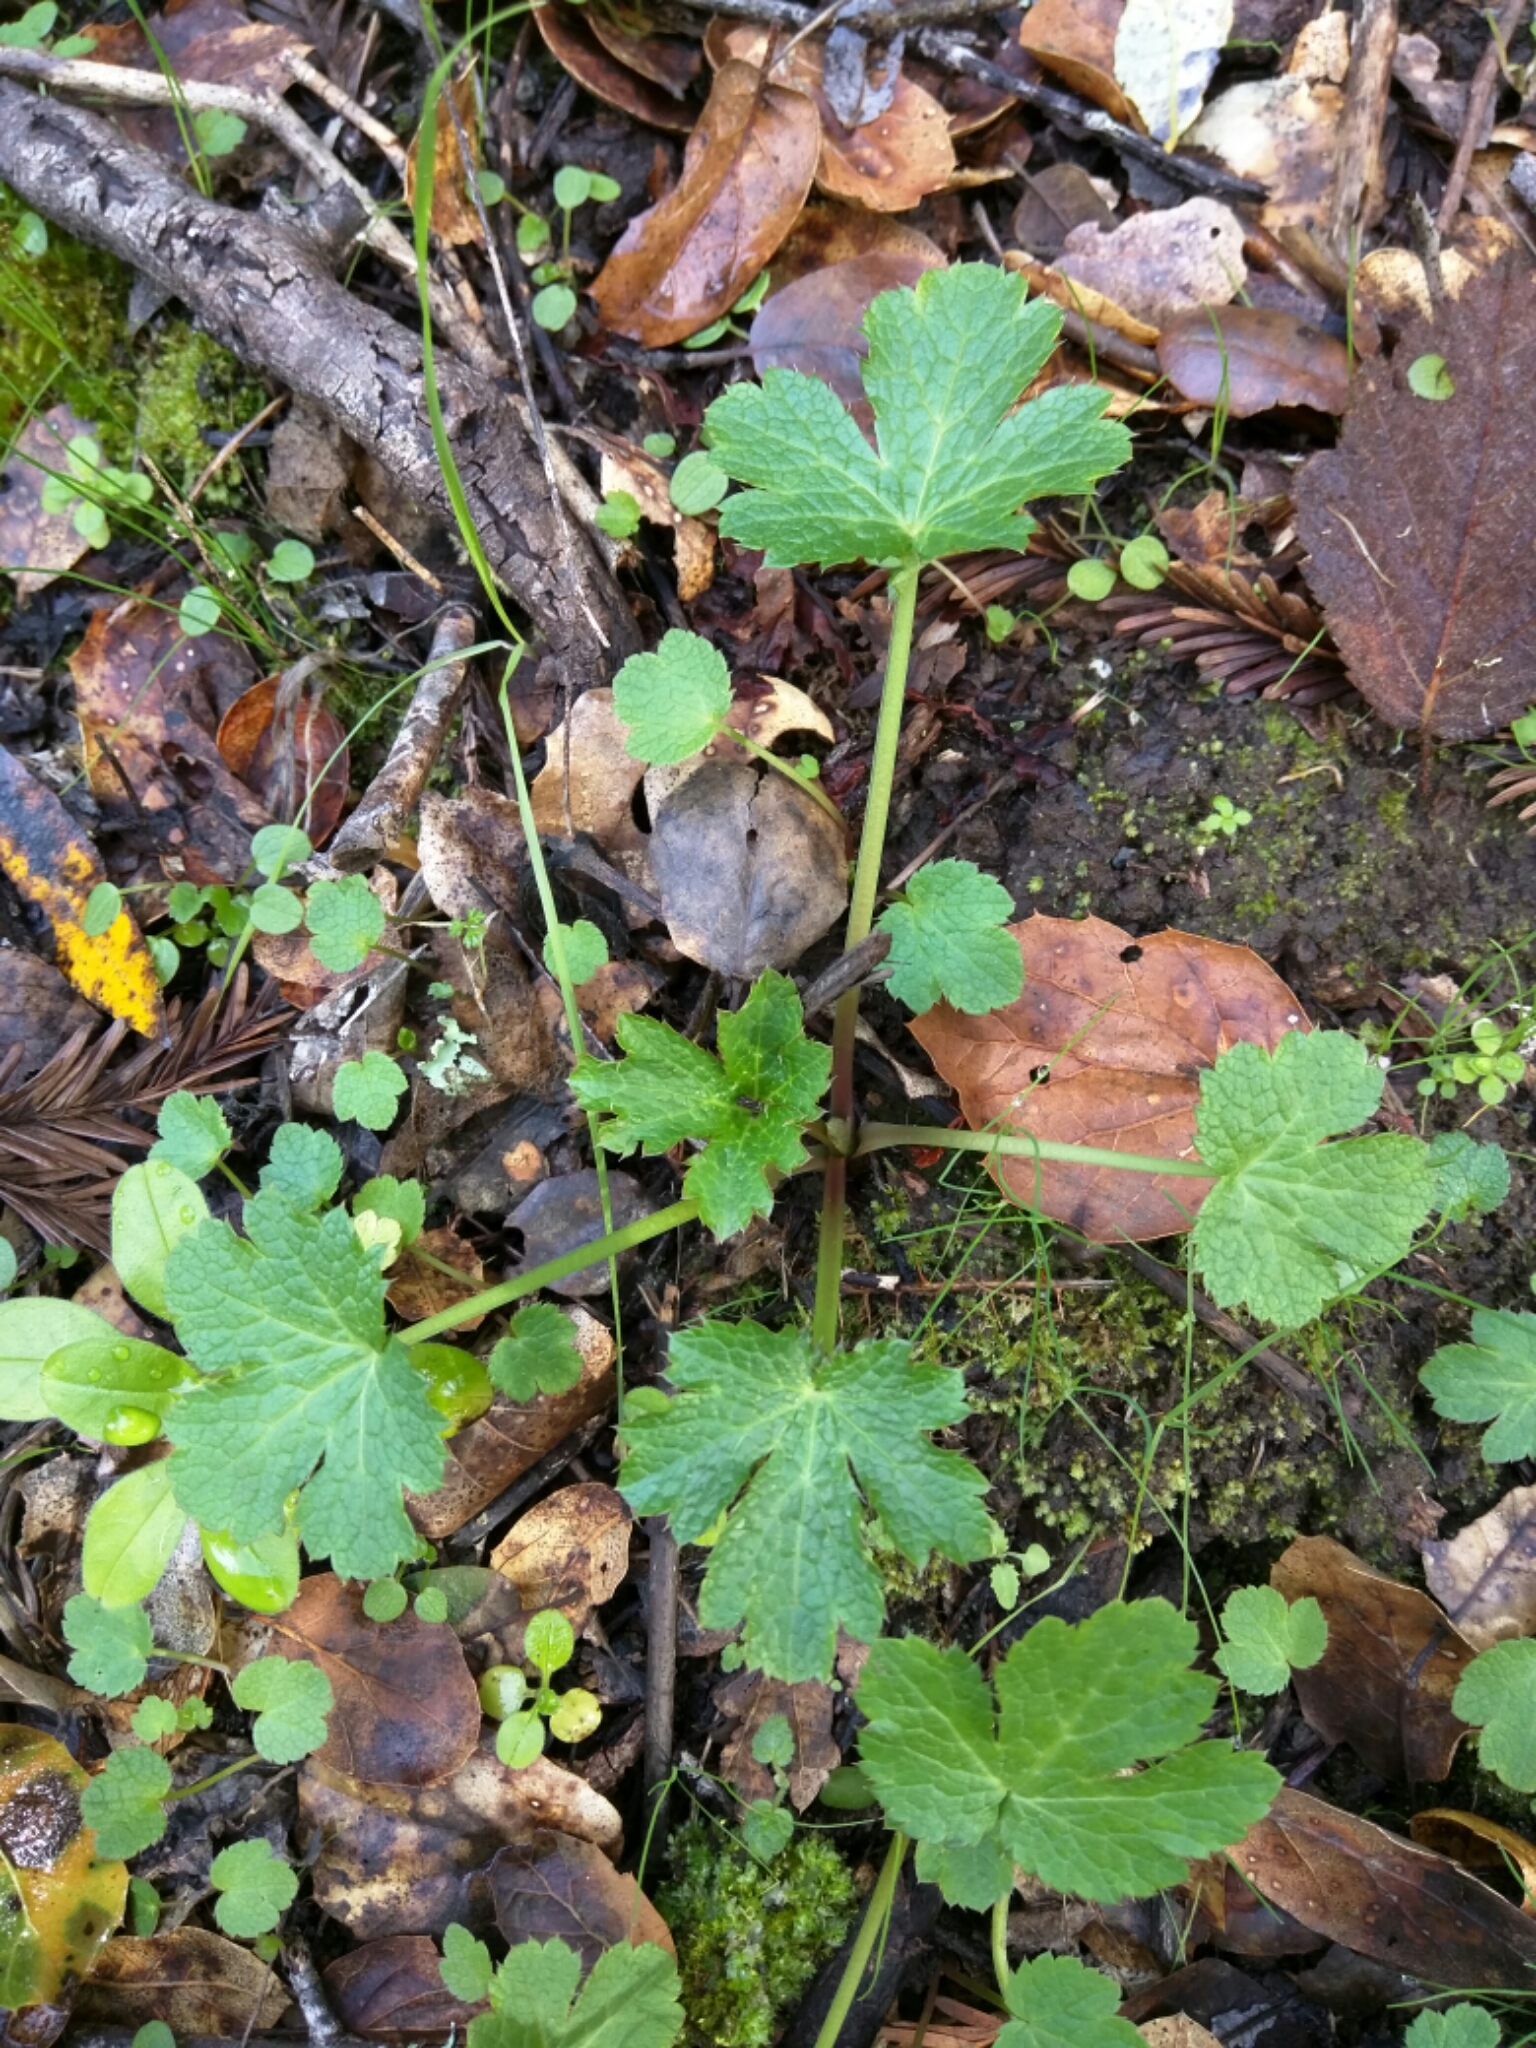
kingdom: Plantae
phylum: Tracheophyta
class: Magnoliopsida
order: Apiales
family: Apiaceae
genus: Sanicula
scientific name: Sanicula crassicaulis
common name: Western snakeroot
